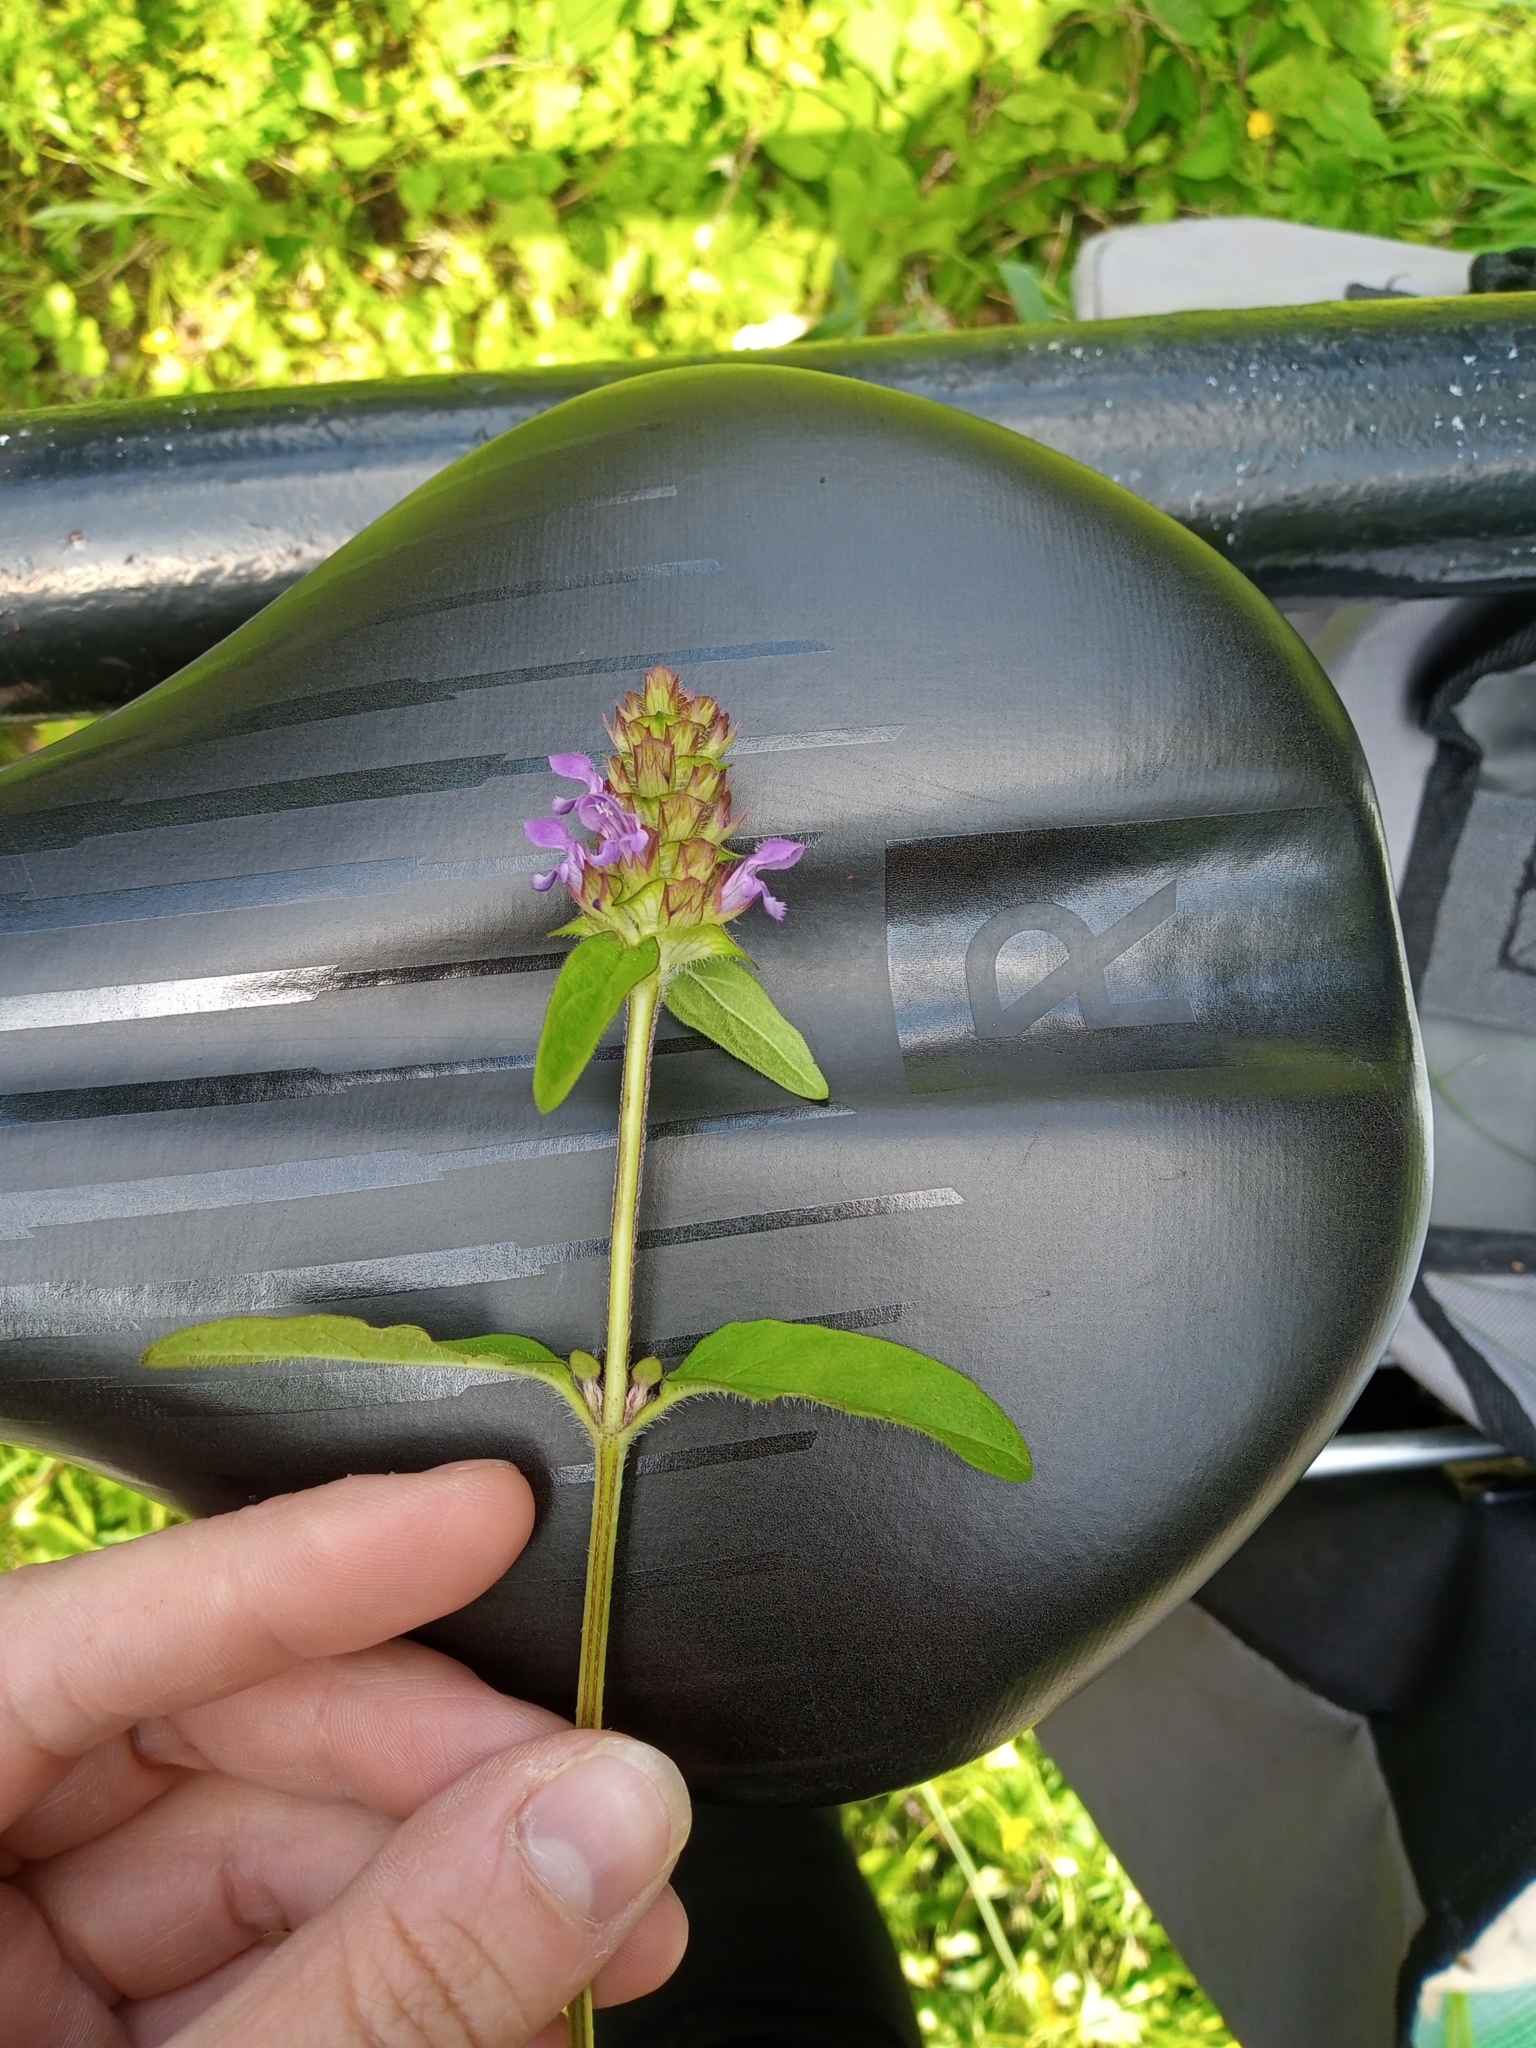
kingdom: Plantae
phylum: Tracheophyta
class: Magnoliopsida
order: Lamiales
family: Lamiaceae
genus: Prunella
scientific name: Prunella vulgaris
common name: Heal-all
